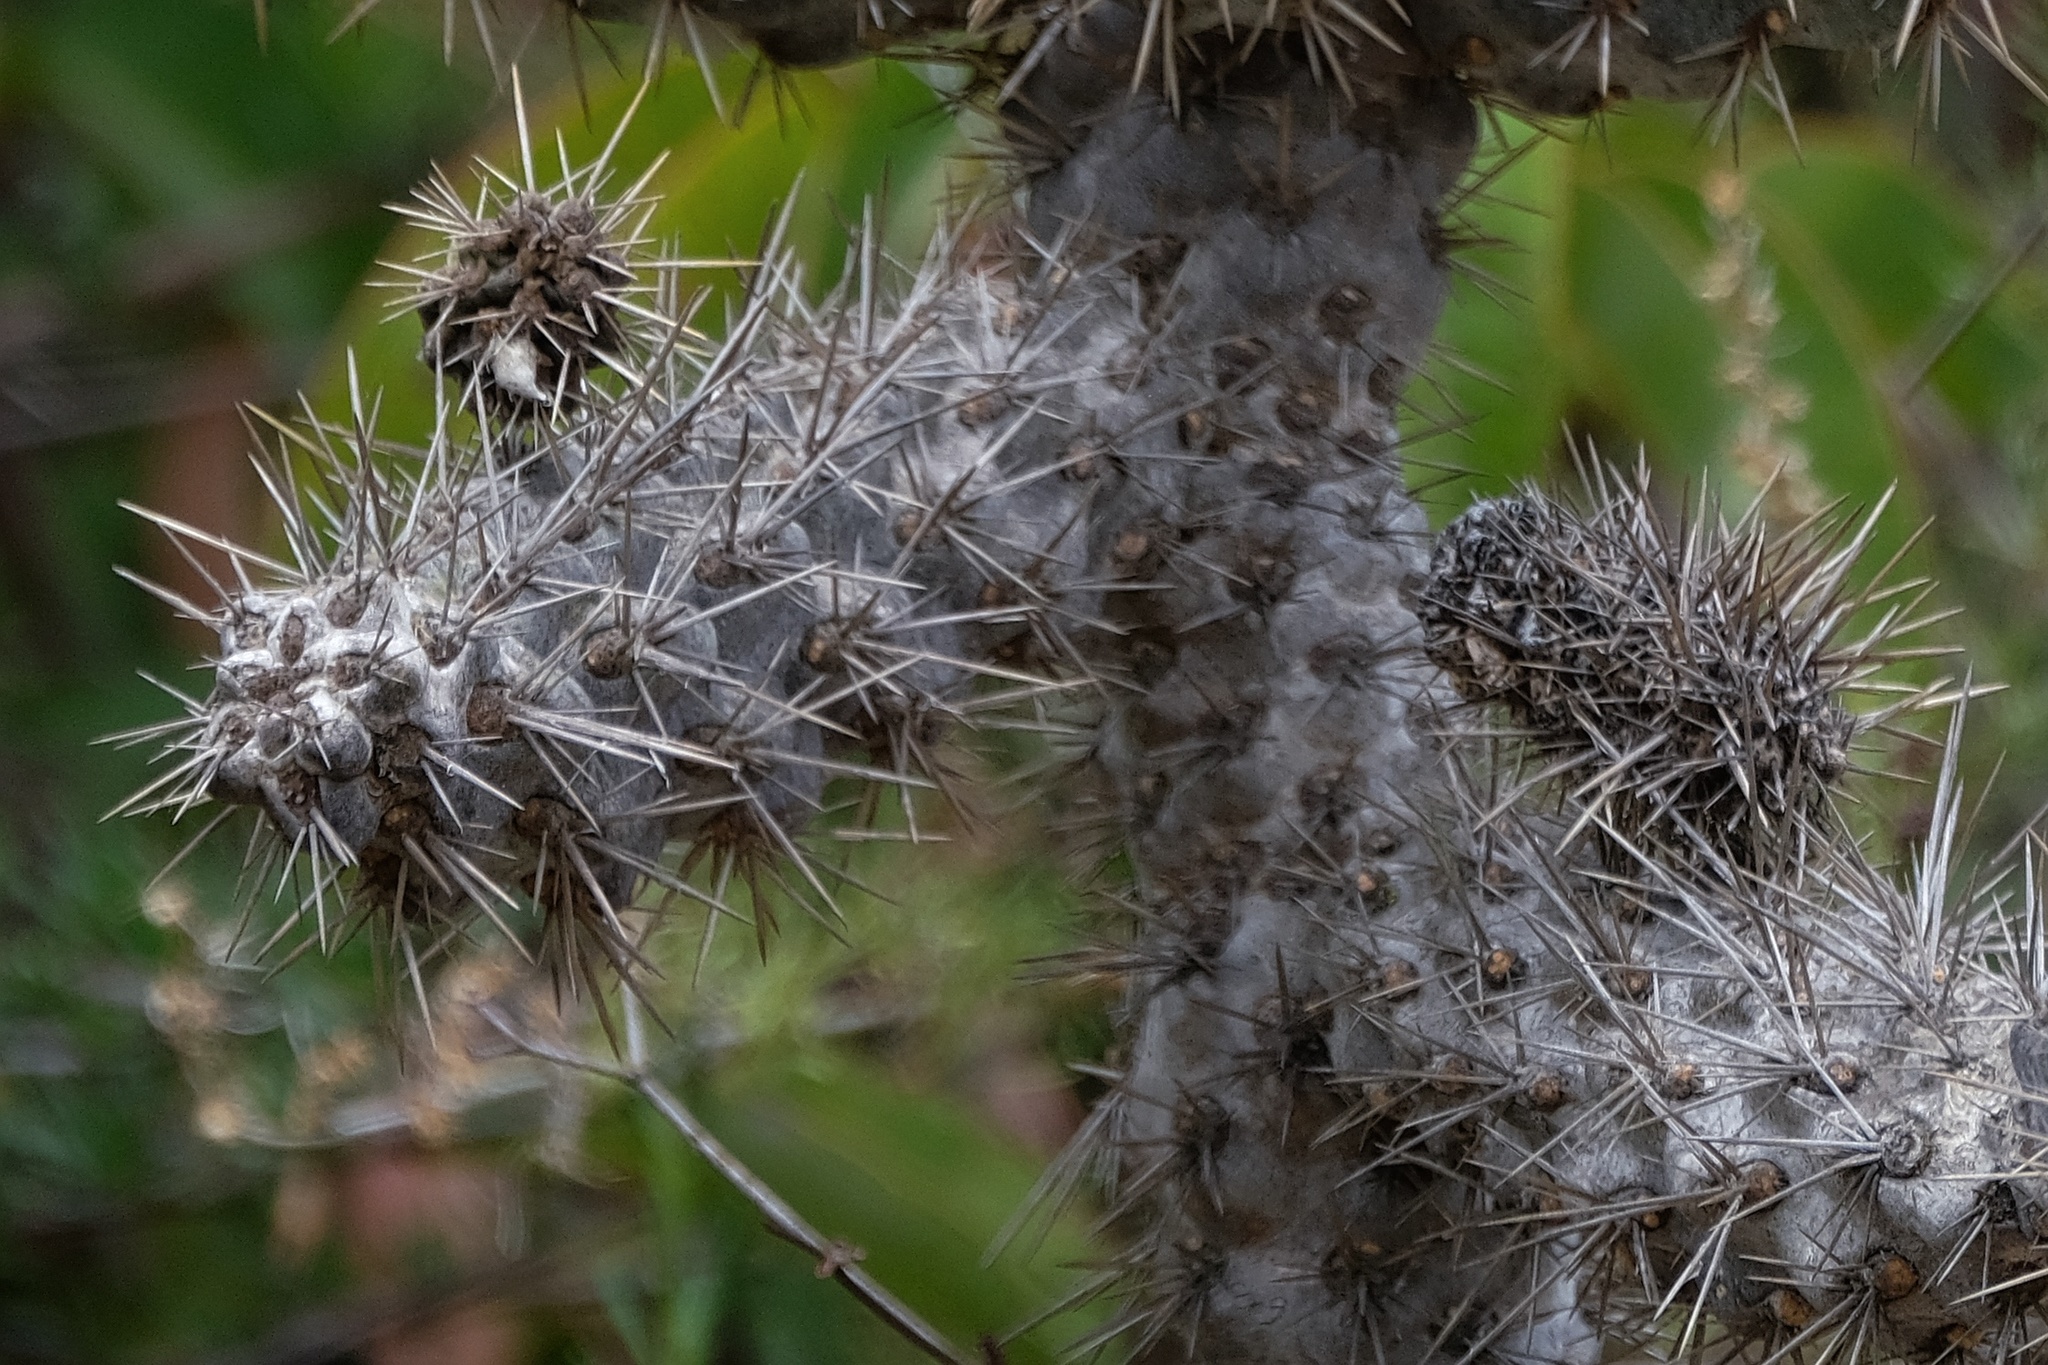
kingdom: Plantae
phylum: Tracheophyta
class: Magnoliopsida
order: Caryophyllales
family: Cactaceae
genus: Cylindropuntia
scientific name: Cylindropuntia prolifera
